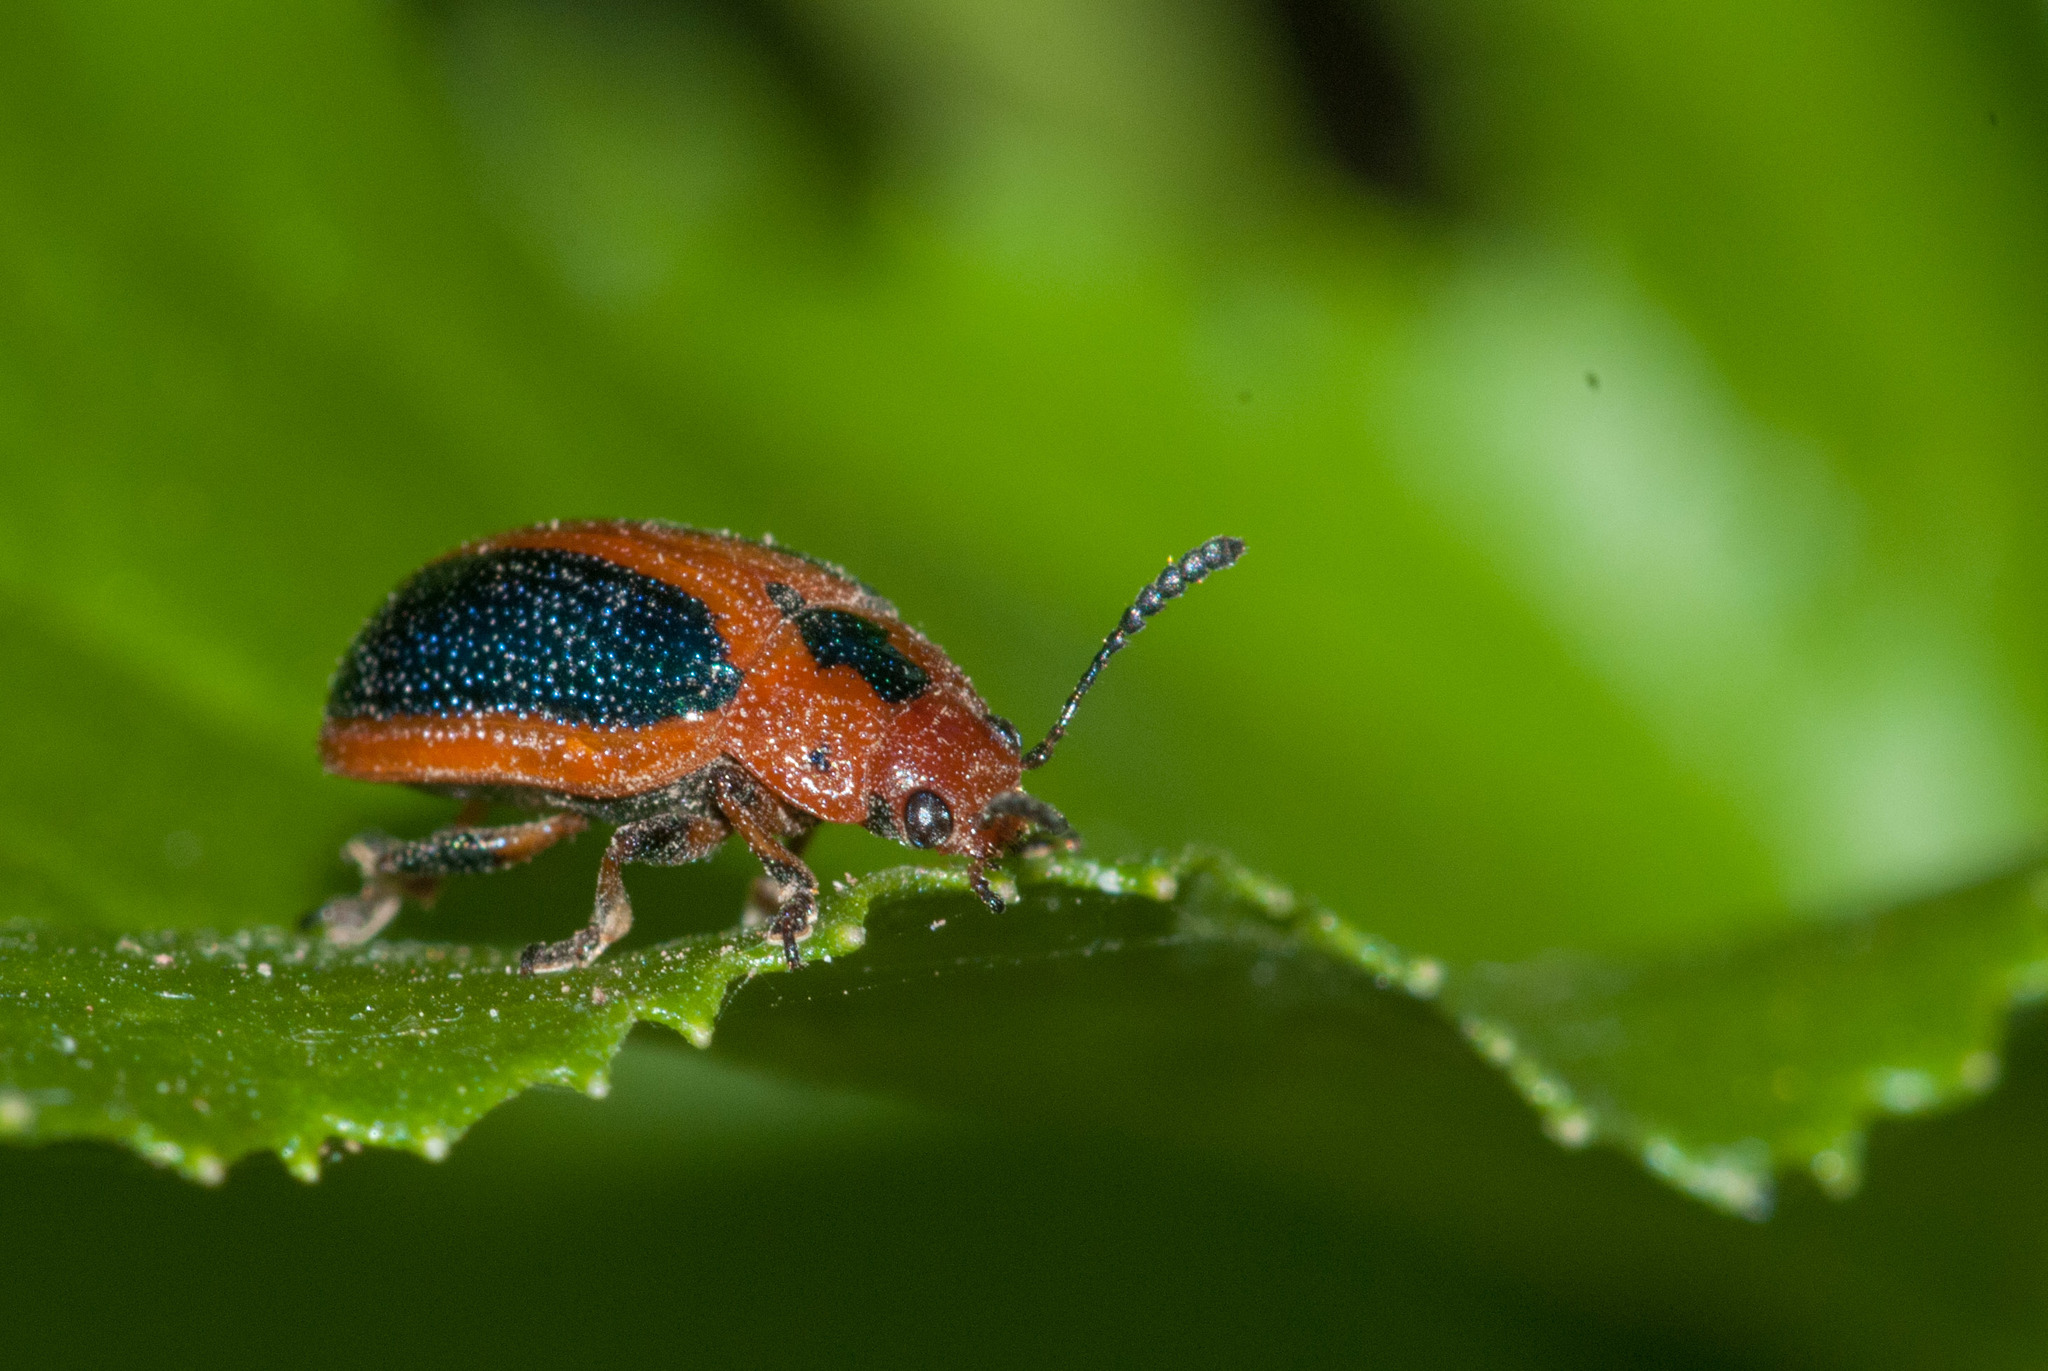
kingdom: Animalia
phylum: Arthropoda
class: Insecta
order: Coleoptera
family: Chrysomelidae
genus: Calomela
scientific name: Calomela
